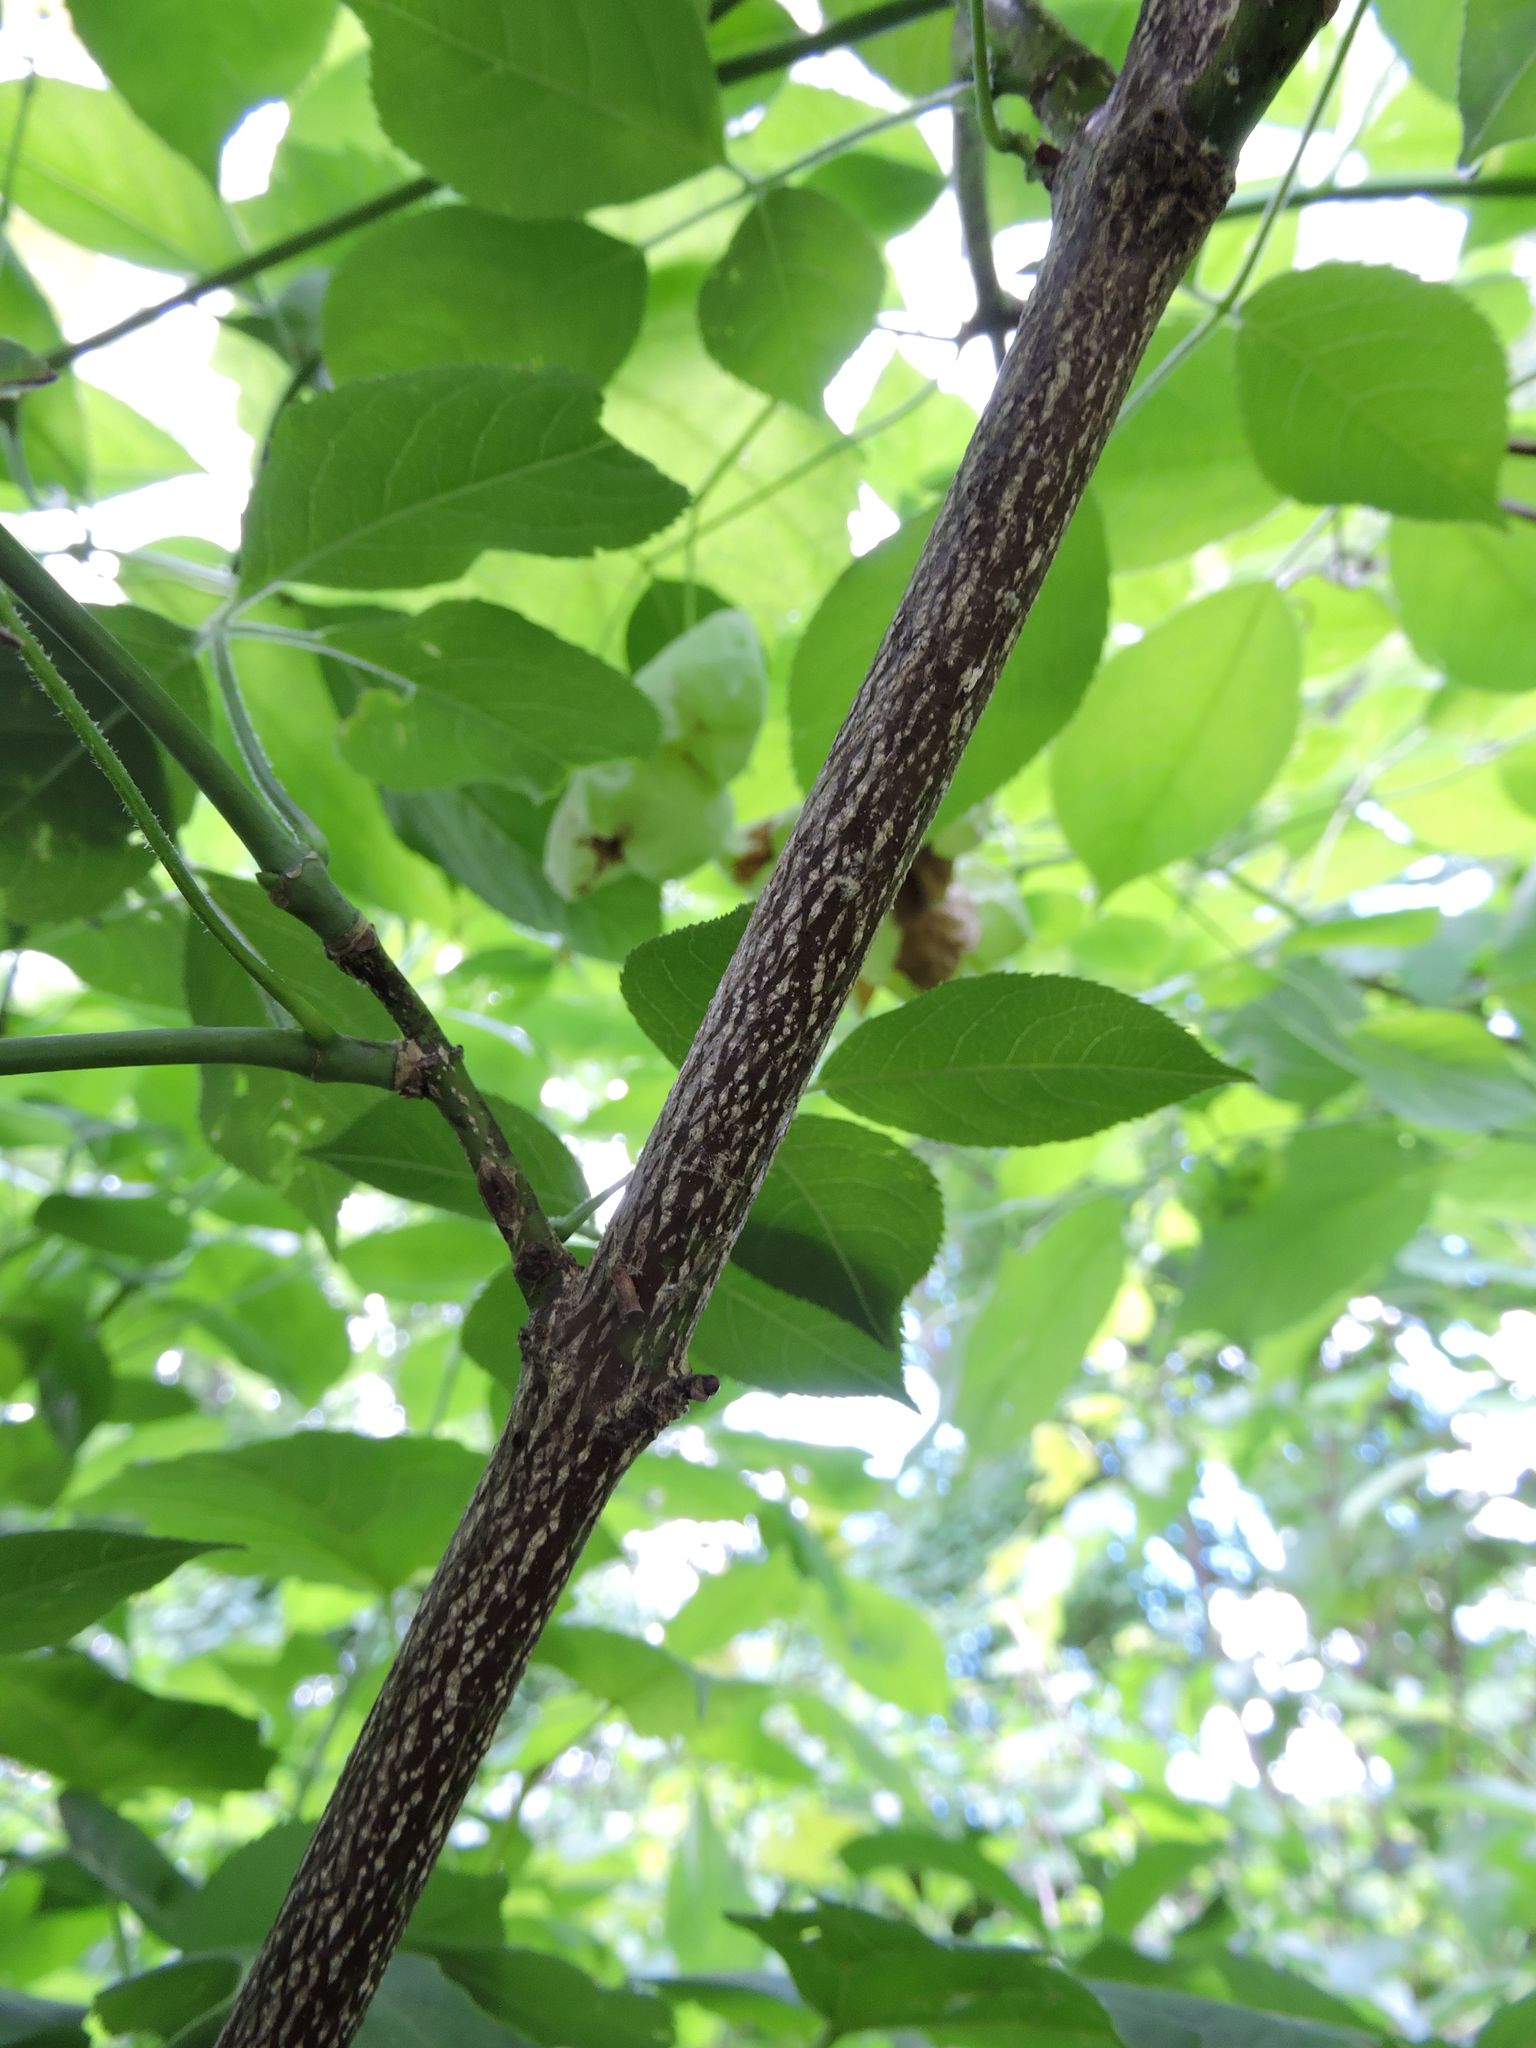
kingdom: Plantae
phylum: Tracheophyta
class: Magnoliopsida
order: Crossosomatales
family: Staphyleaceae
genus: Staphylea
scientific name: Staphylea trifolia
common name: American bladdernut
